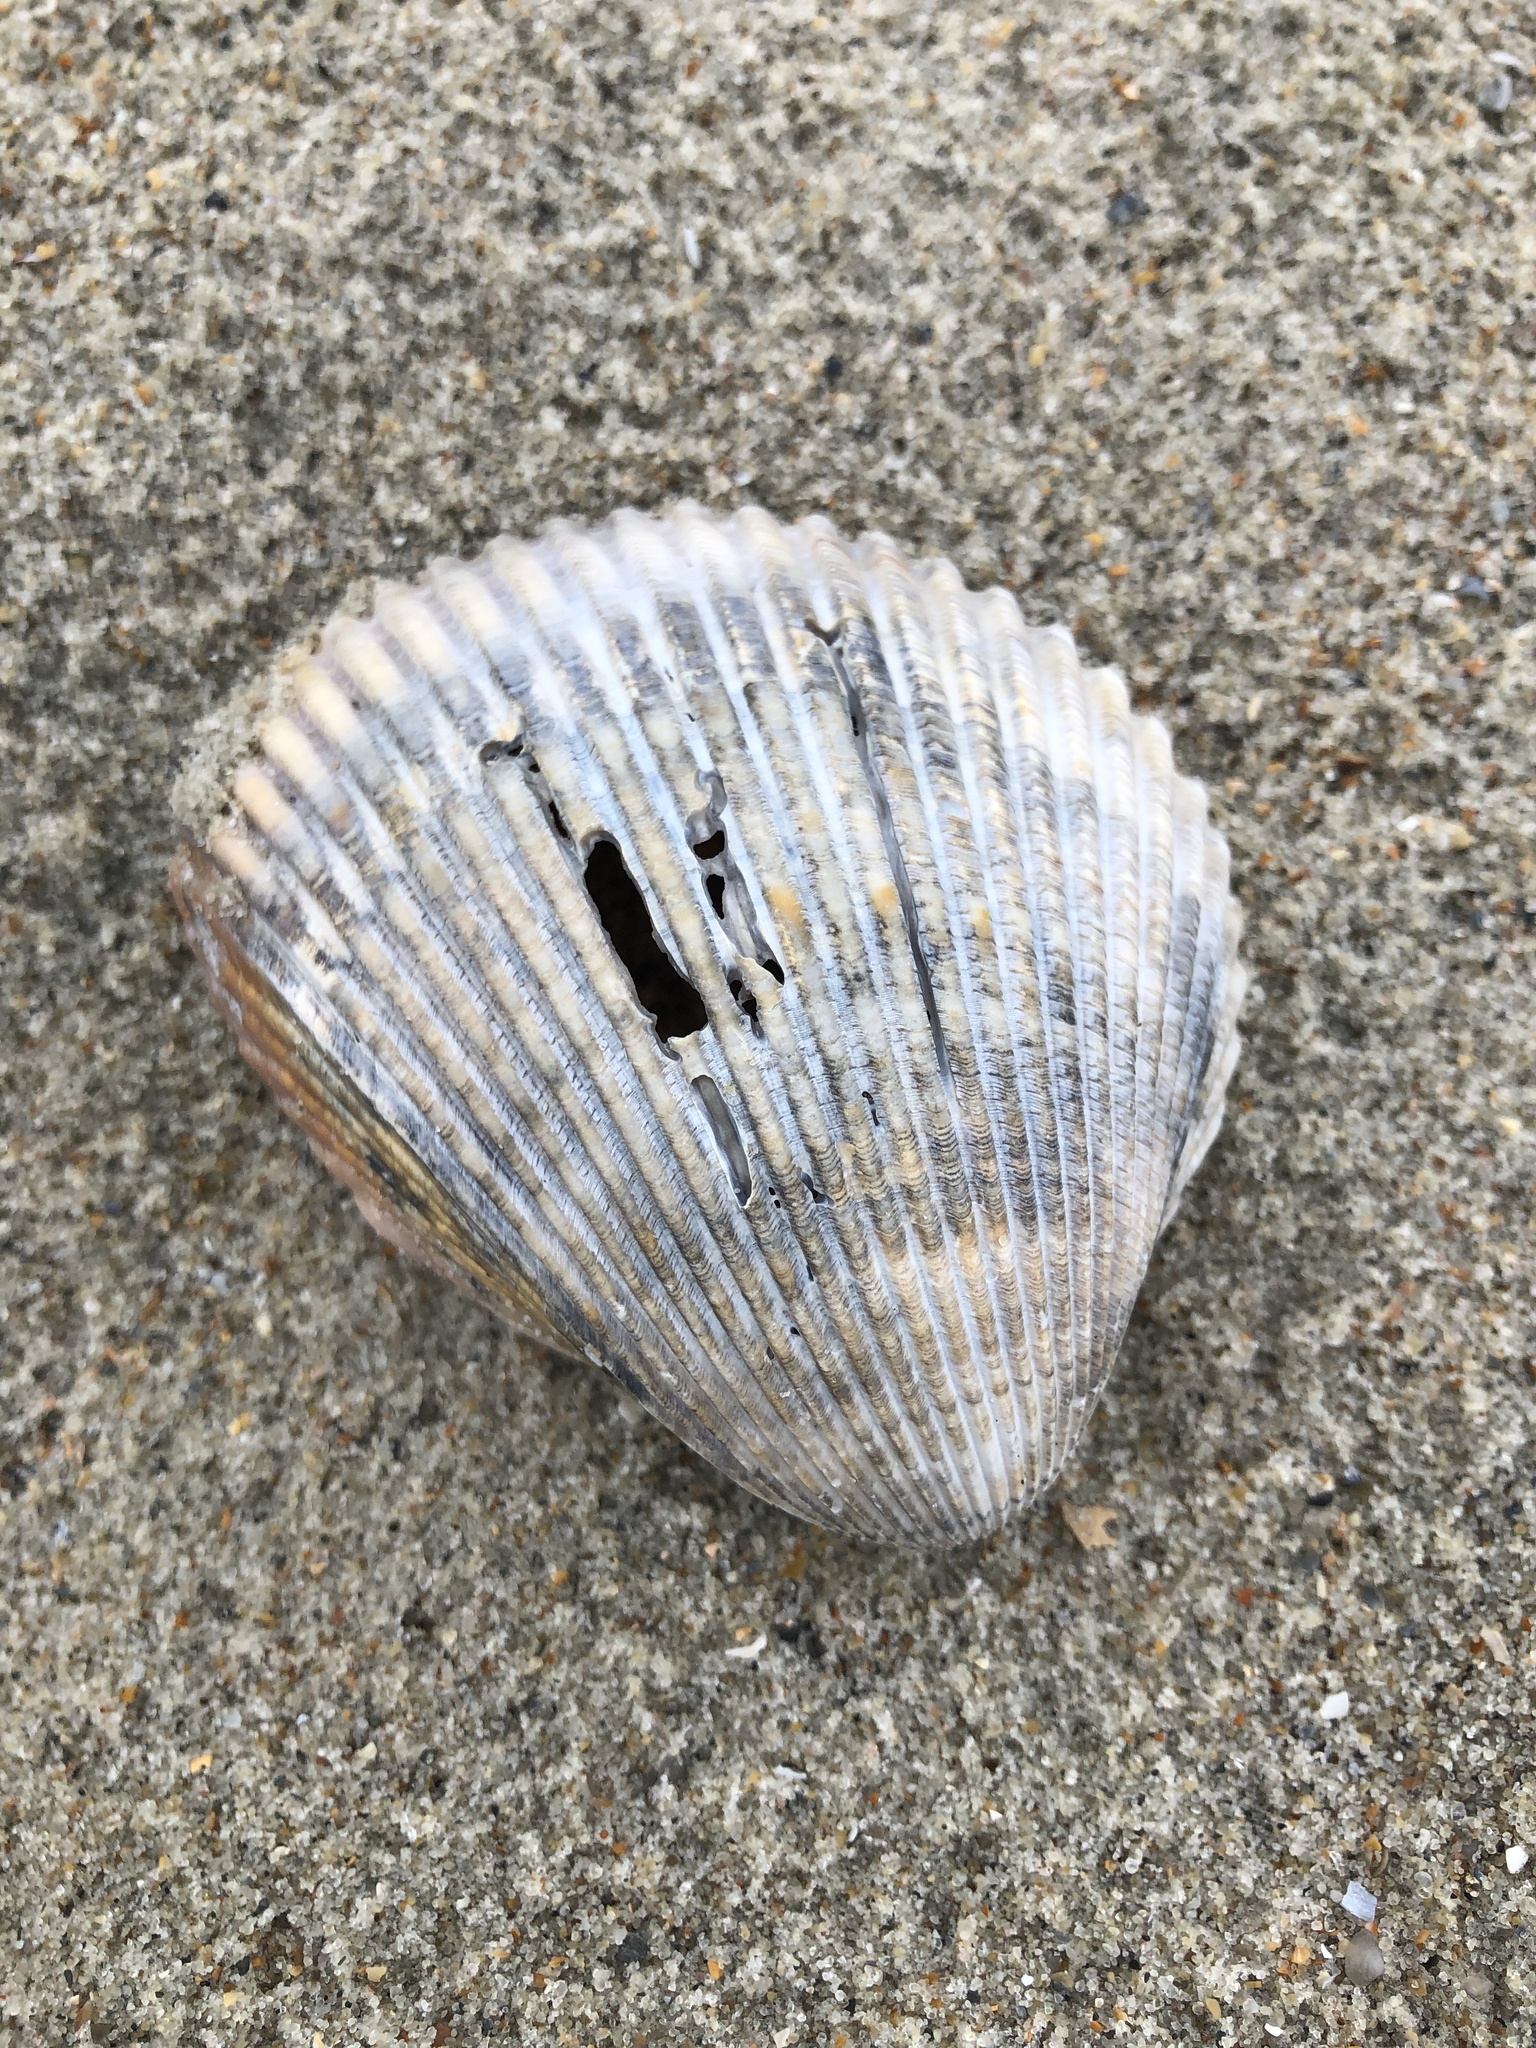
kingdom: Animalia
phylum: Mollusca
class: Bivalvia
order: Cardiida
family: Cardiidae
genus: Dinocardium
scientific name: Dinocardium robustum
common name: Atlantic giant cockle
